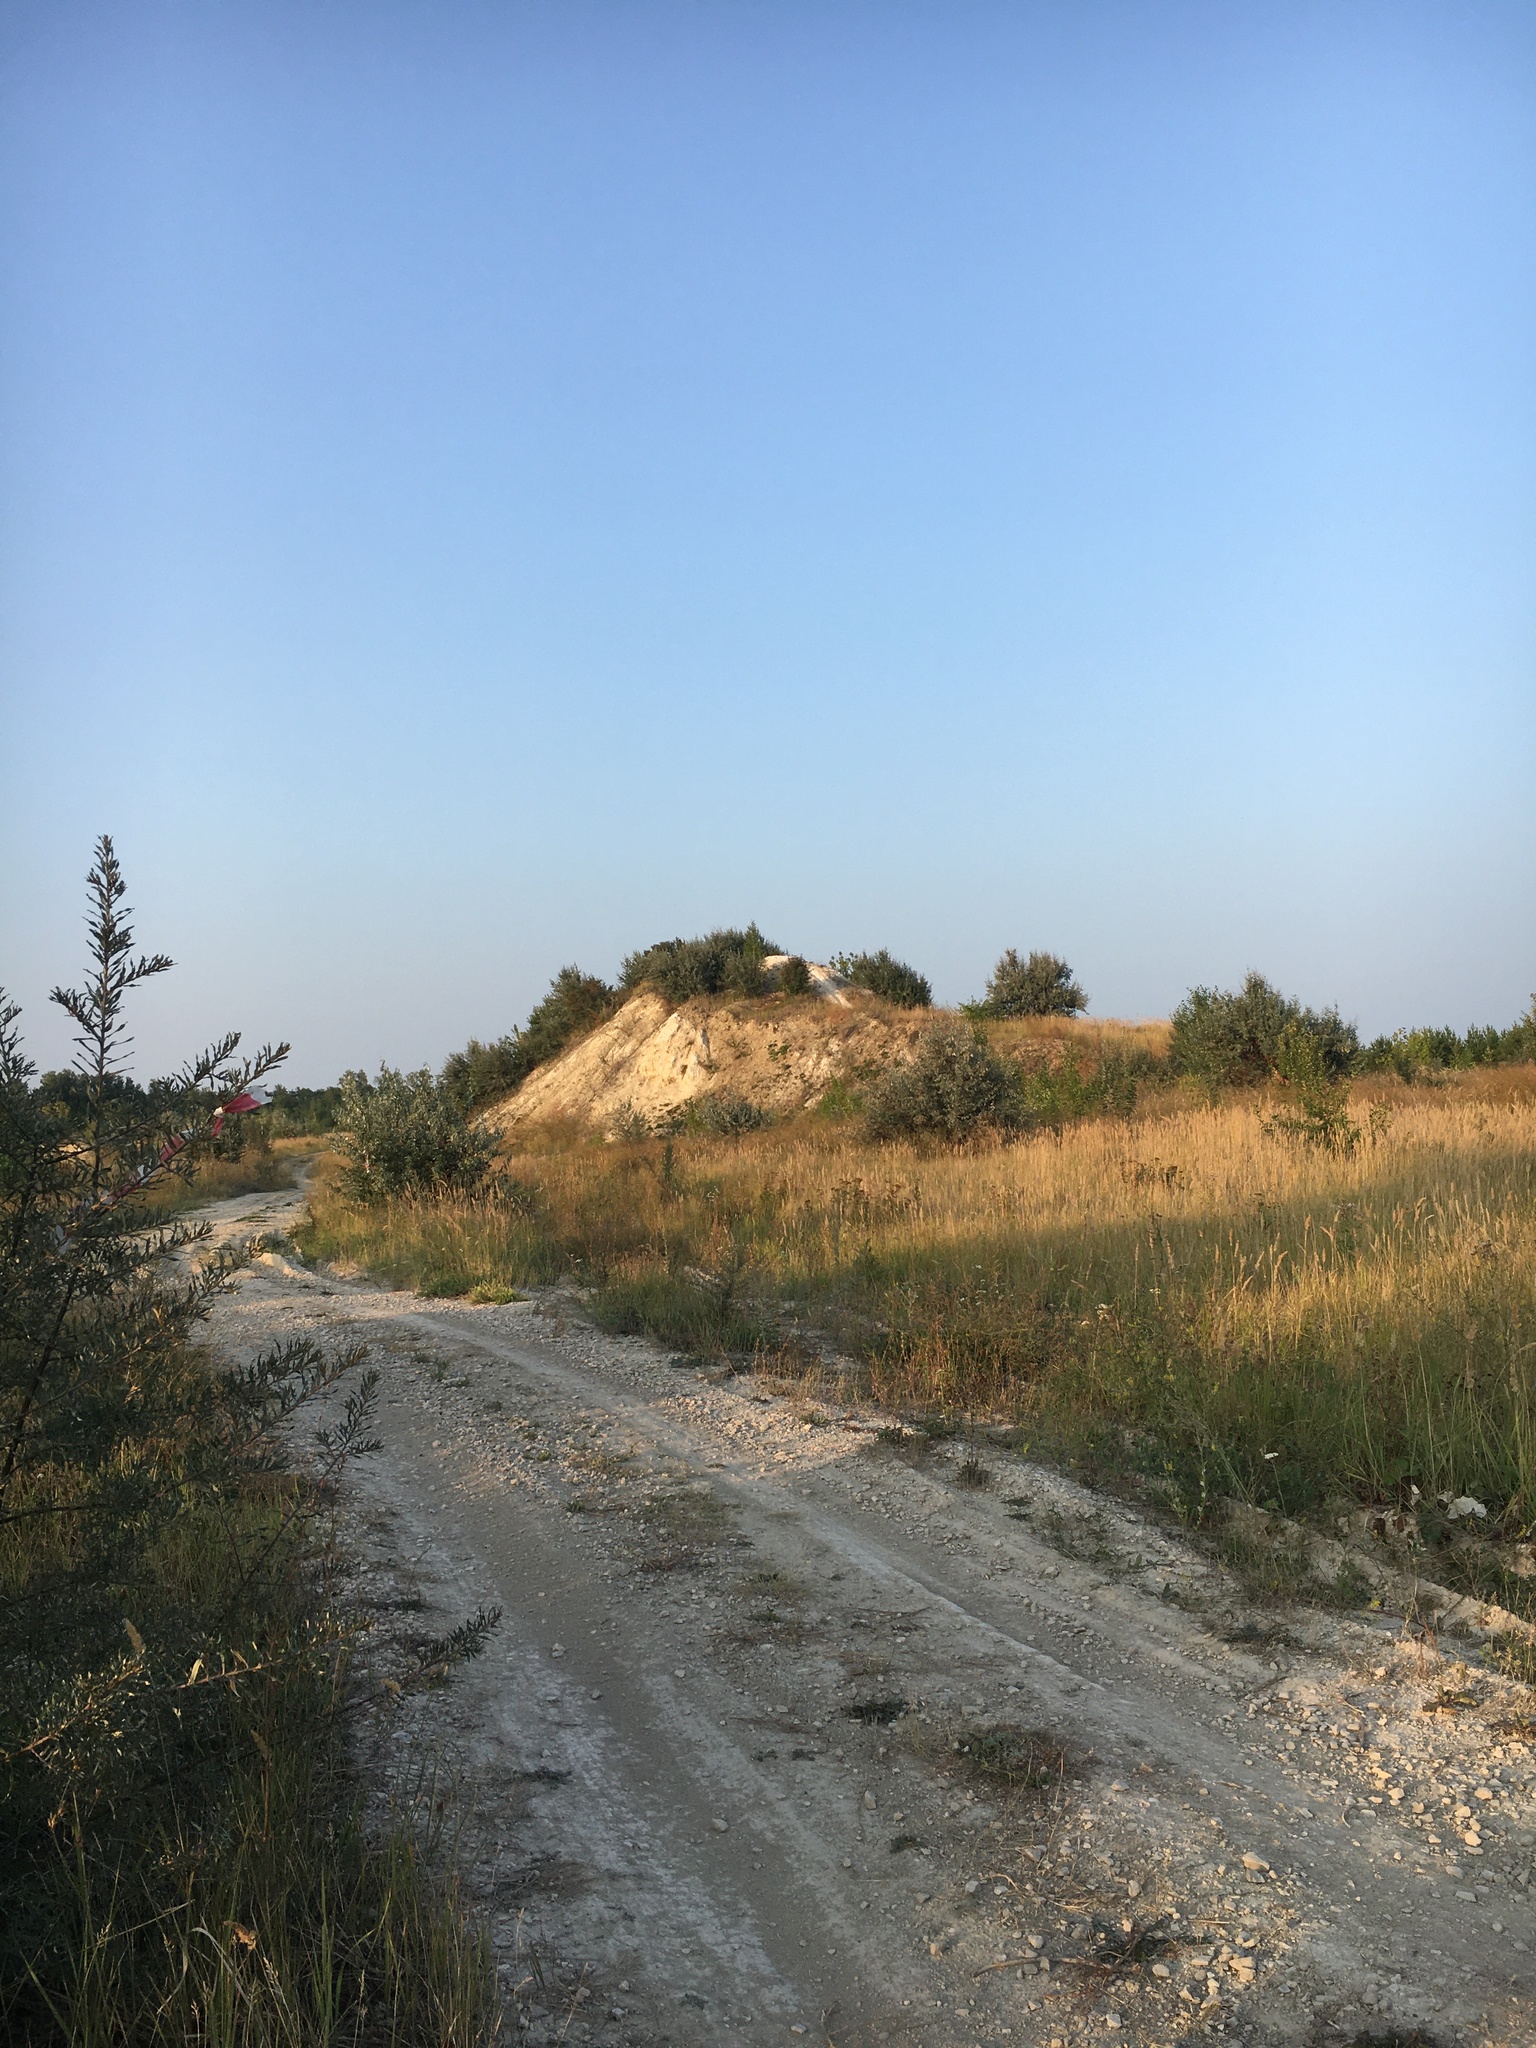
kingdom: Plantae
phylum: Tracheophyta
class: Magnoliopsida
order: Asterales
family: Asteraceae
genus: Bidens
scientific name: Bidens tripartita
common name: Trifid bur-marigold
